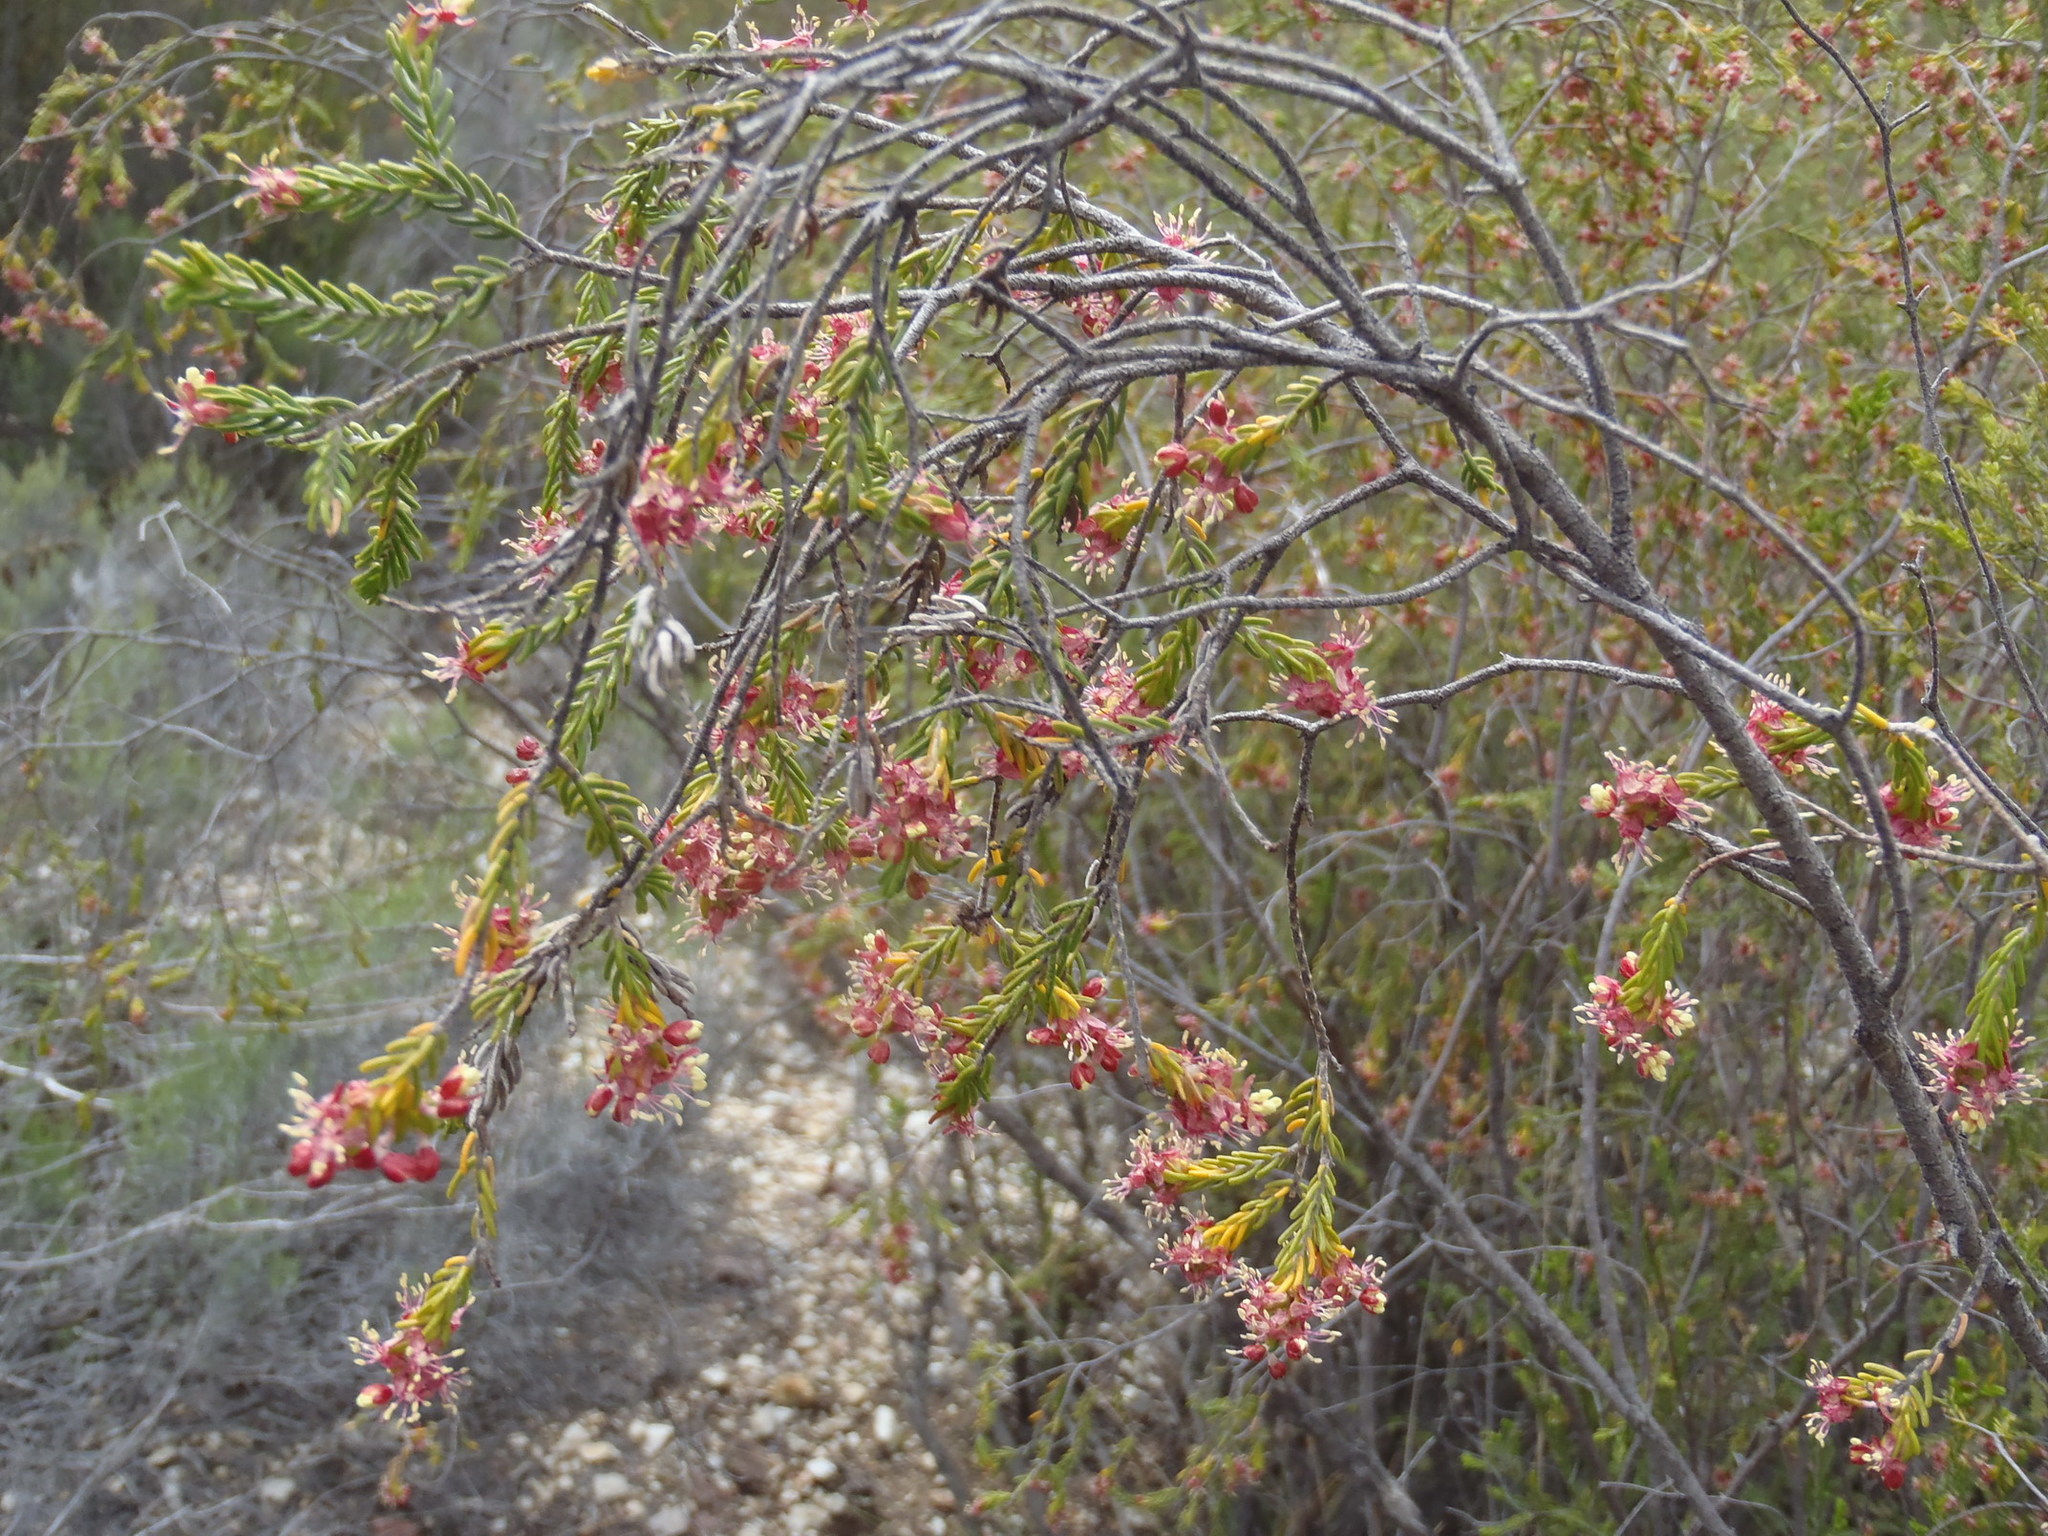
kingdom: Plantae
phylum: Tracheophyta
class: Magnoliopsida
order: Malvales
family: Thymelaeaceae
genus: Passerina
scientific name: Passerina obtusifolia
